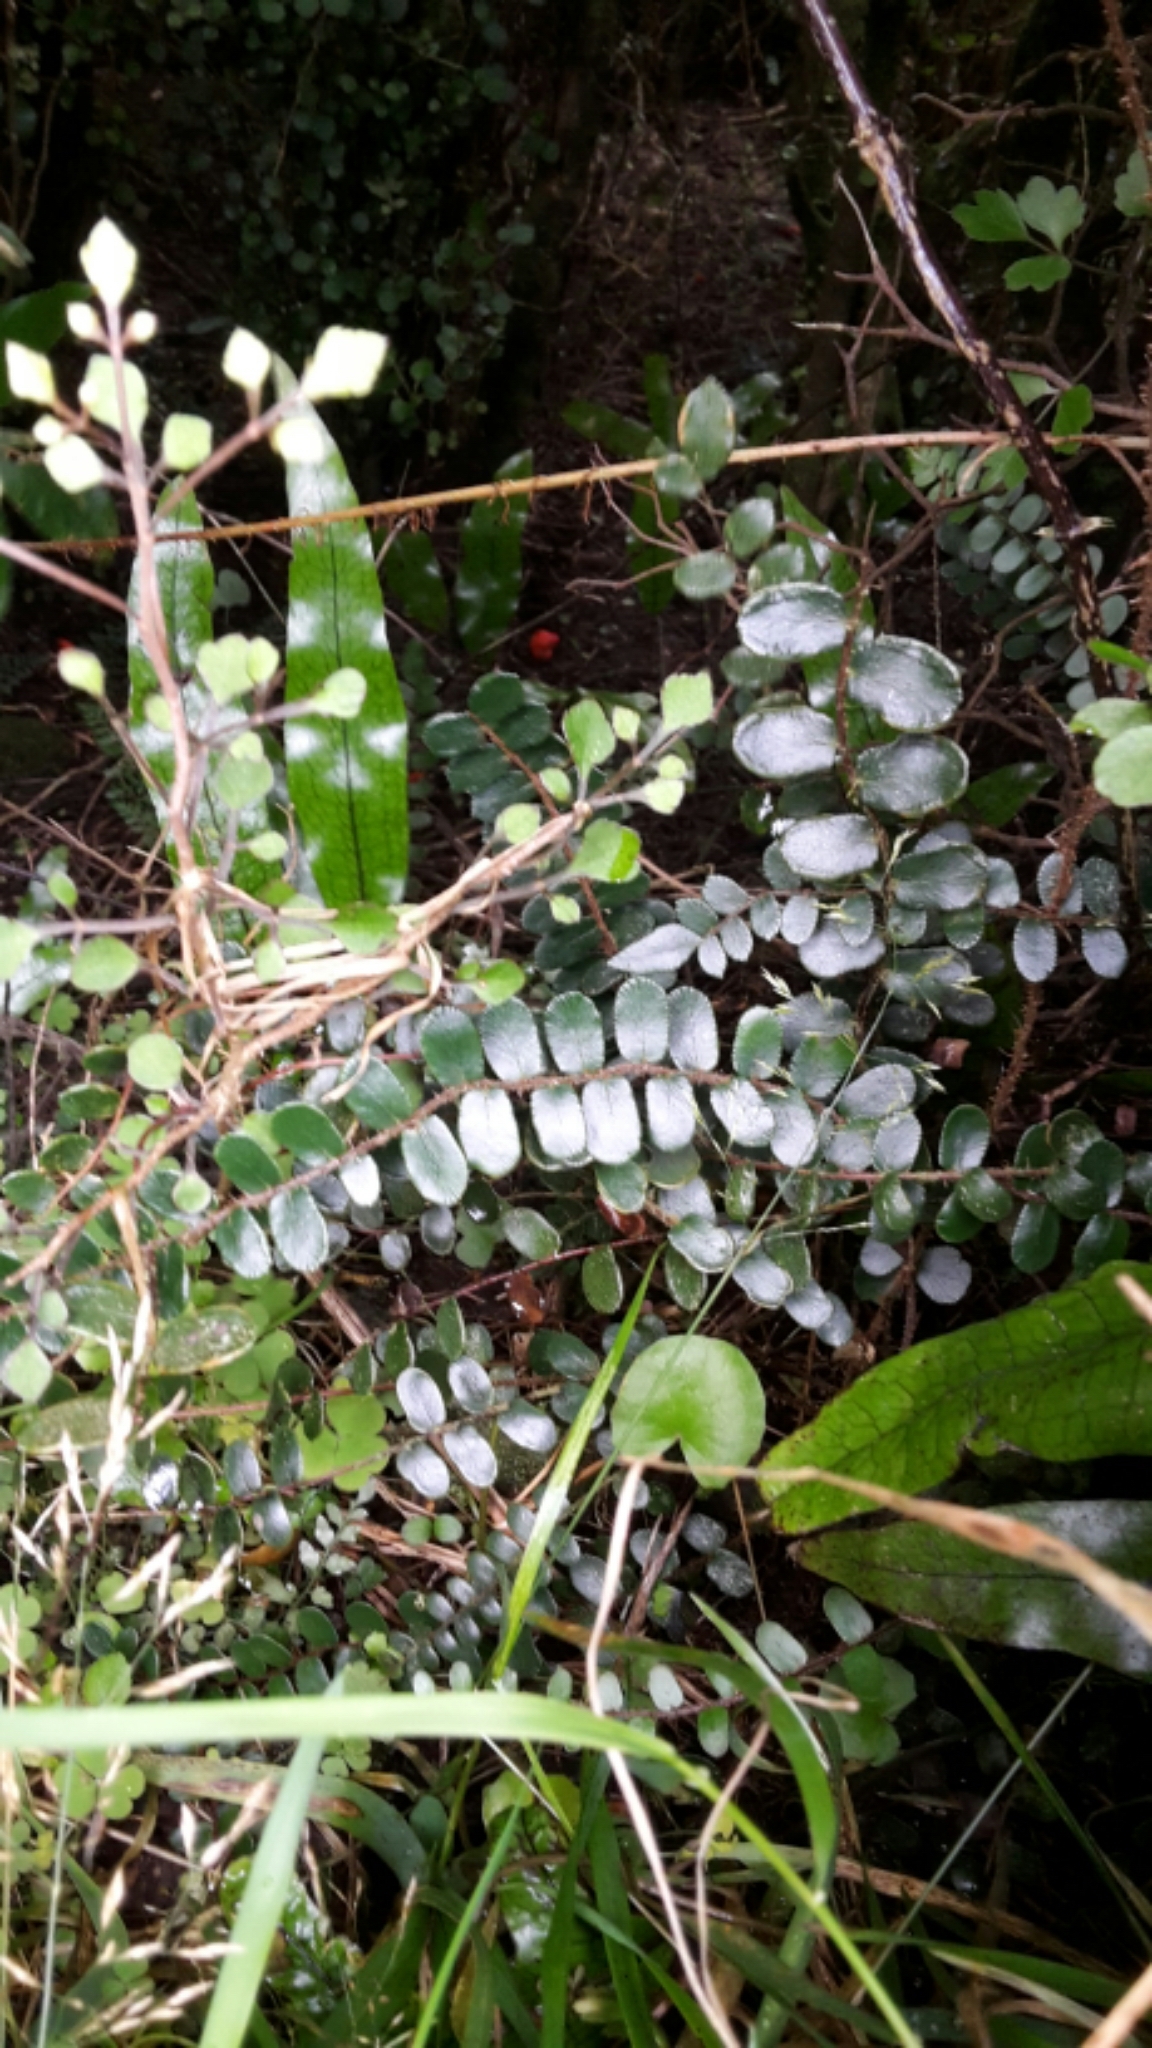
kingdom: Plantae
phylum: Tracheophyta
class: Polypodiopsida
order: Polypodiales
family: Pteridaceae
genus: Pellaea
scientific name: Pellaea rotundifolia
